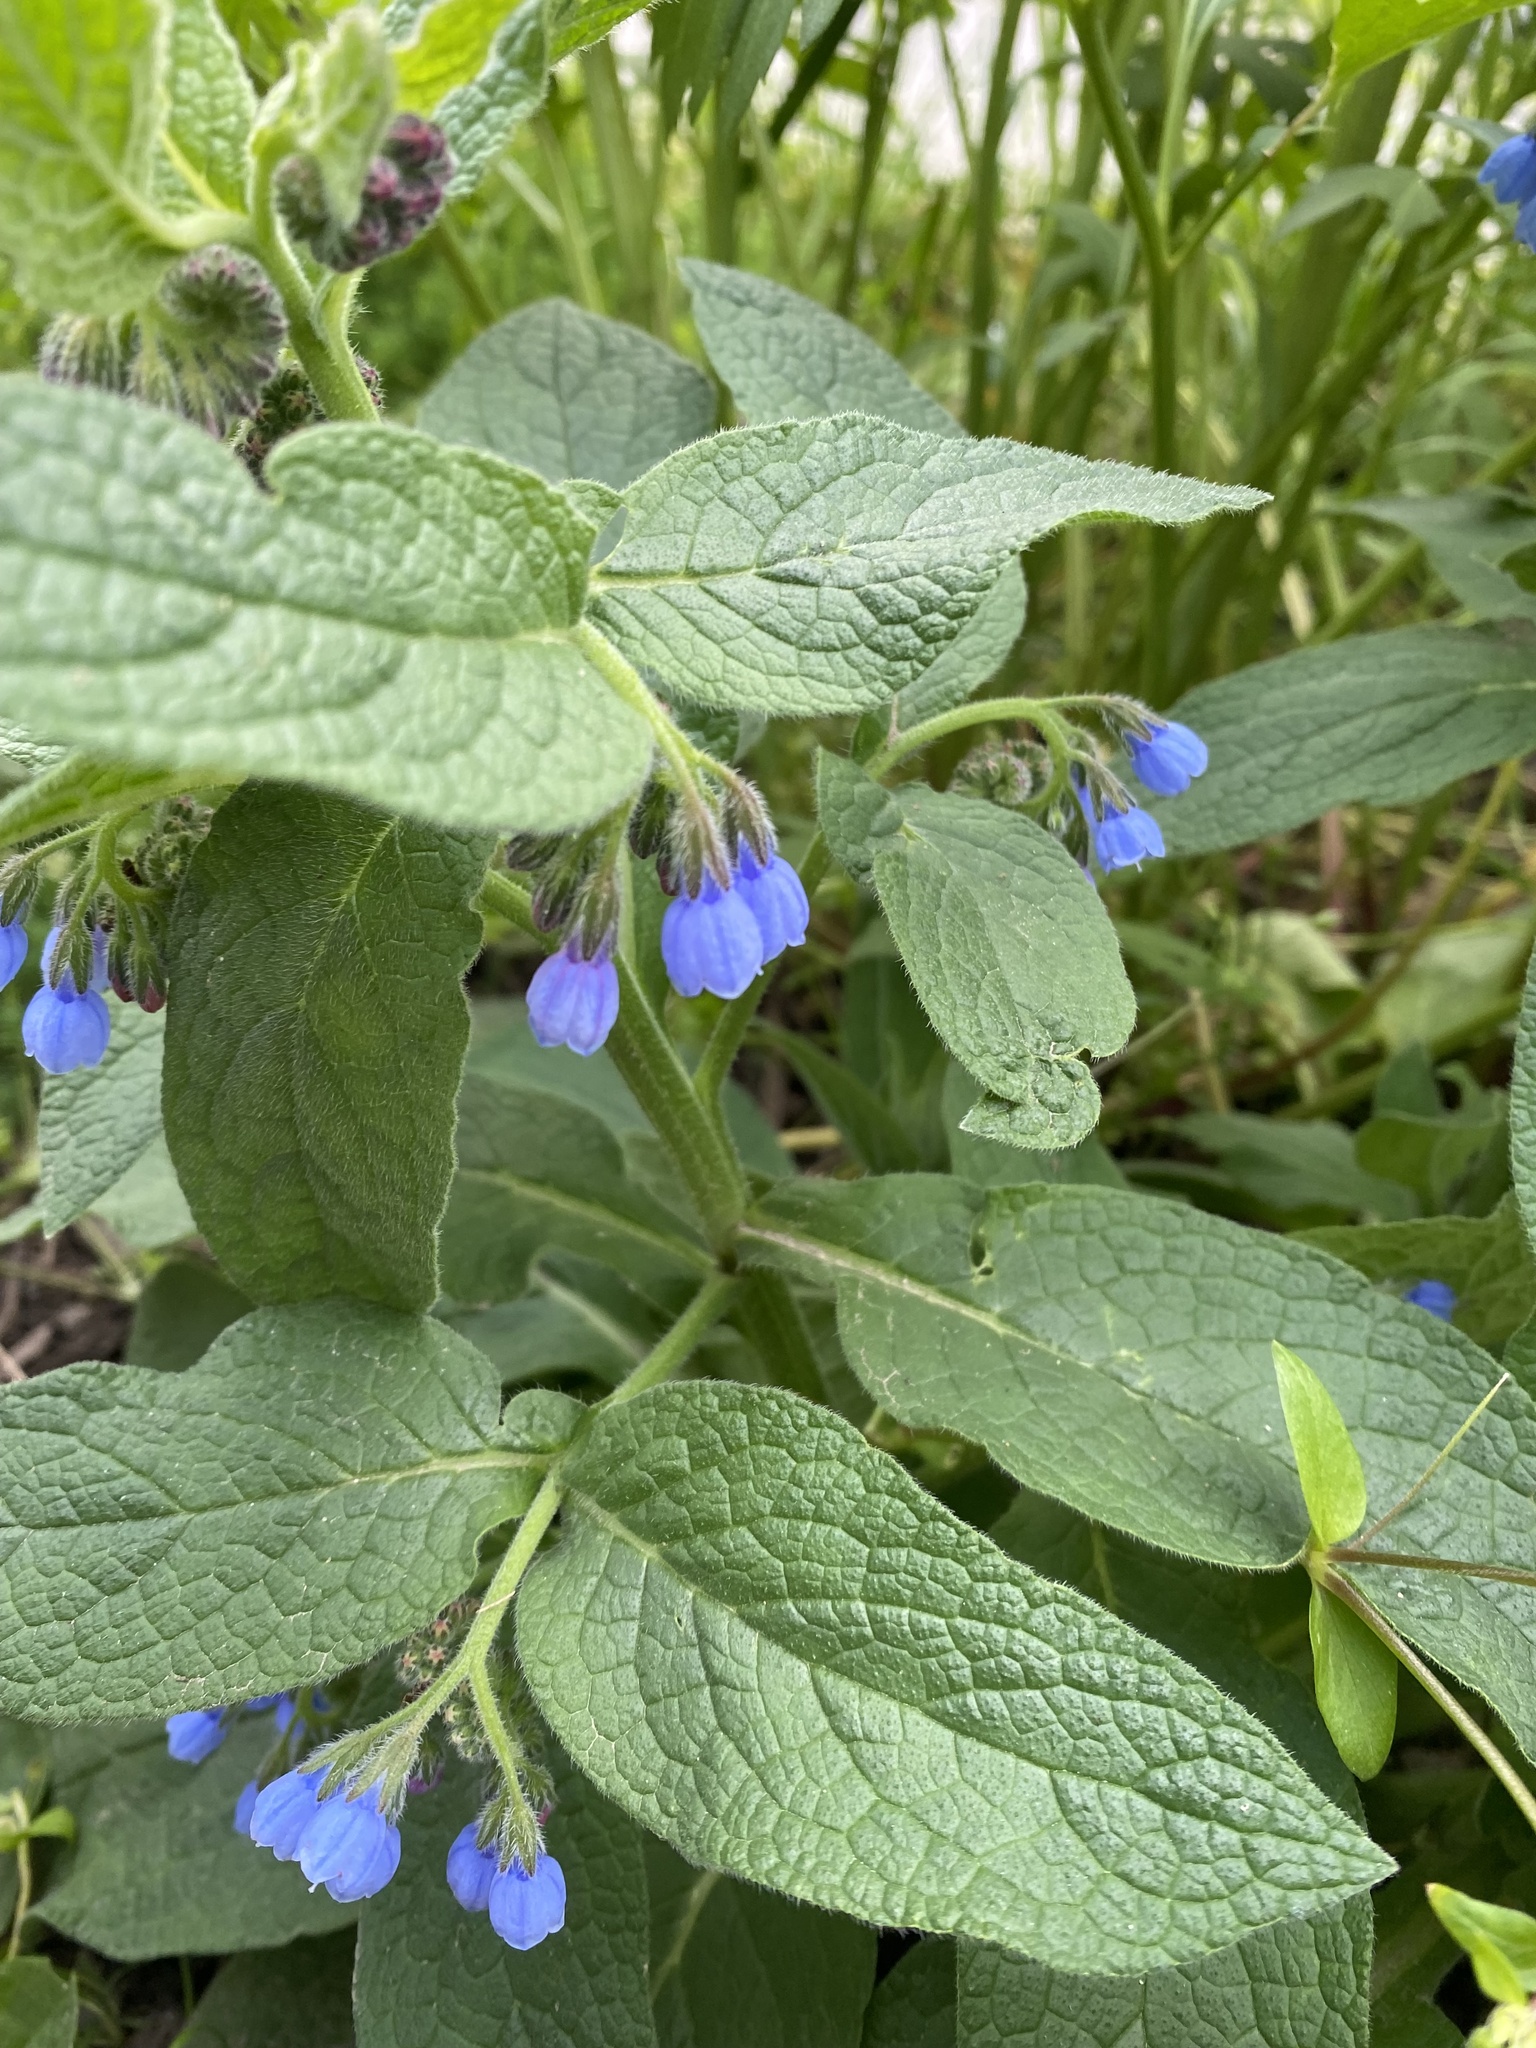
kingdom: Plantae
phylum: Tracheophyta
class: Magnoliopsida
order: Boraginales
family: Boraginaceae
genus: Symphytum
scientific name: Symphytum caucasicum
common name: Caucasian comfrey
